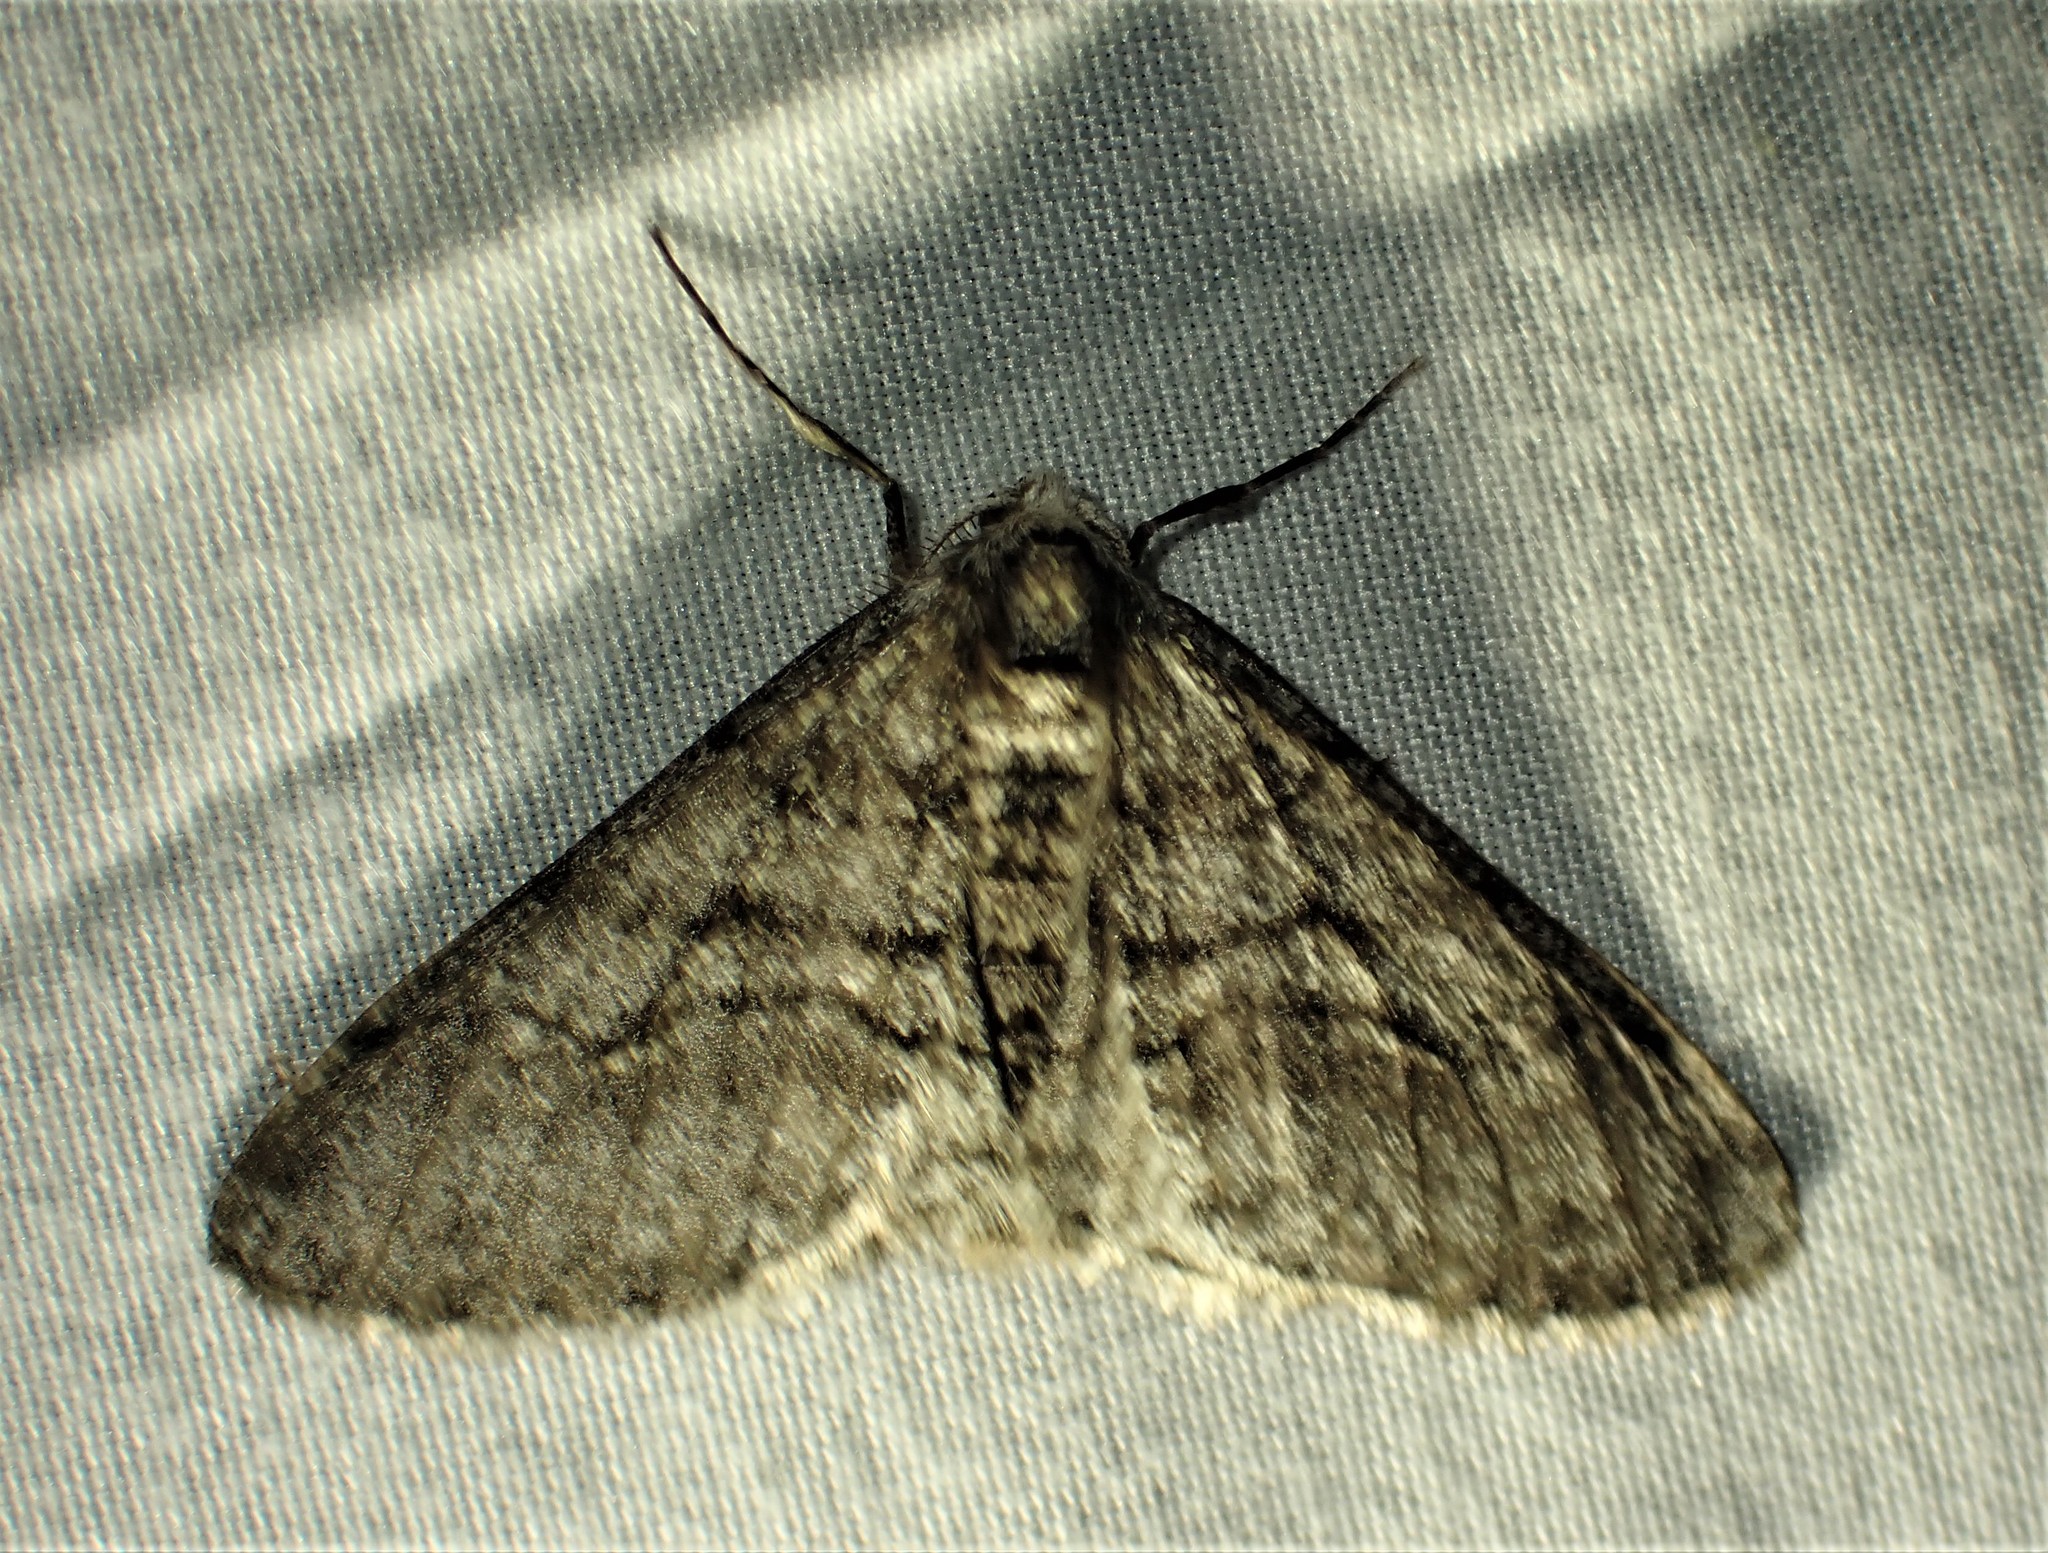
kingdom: Animalia
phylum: Arthropoda
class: Insecta
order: Lepidoptera
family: Geometridae
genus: Phigalia
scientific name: Phigalia titea
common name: Spiny looper
